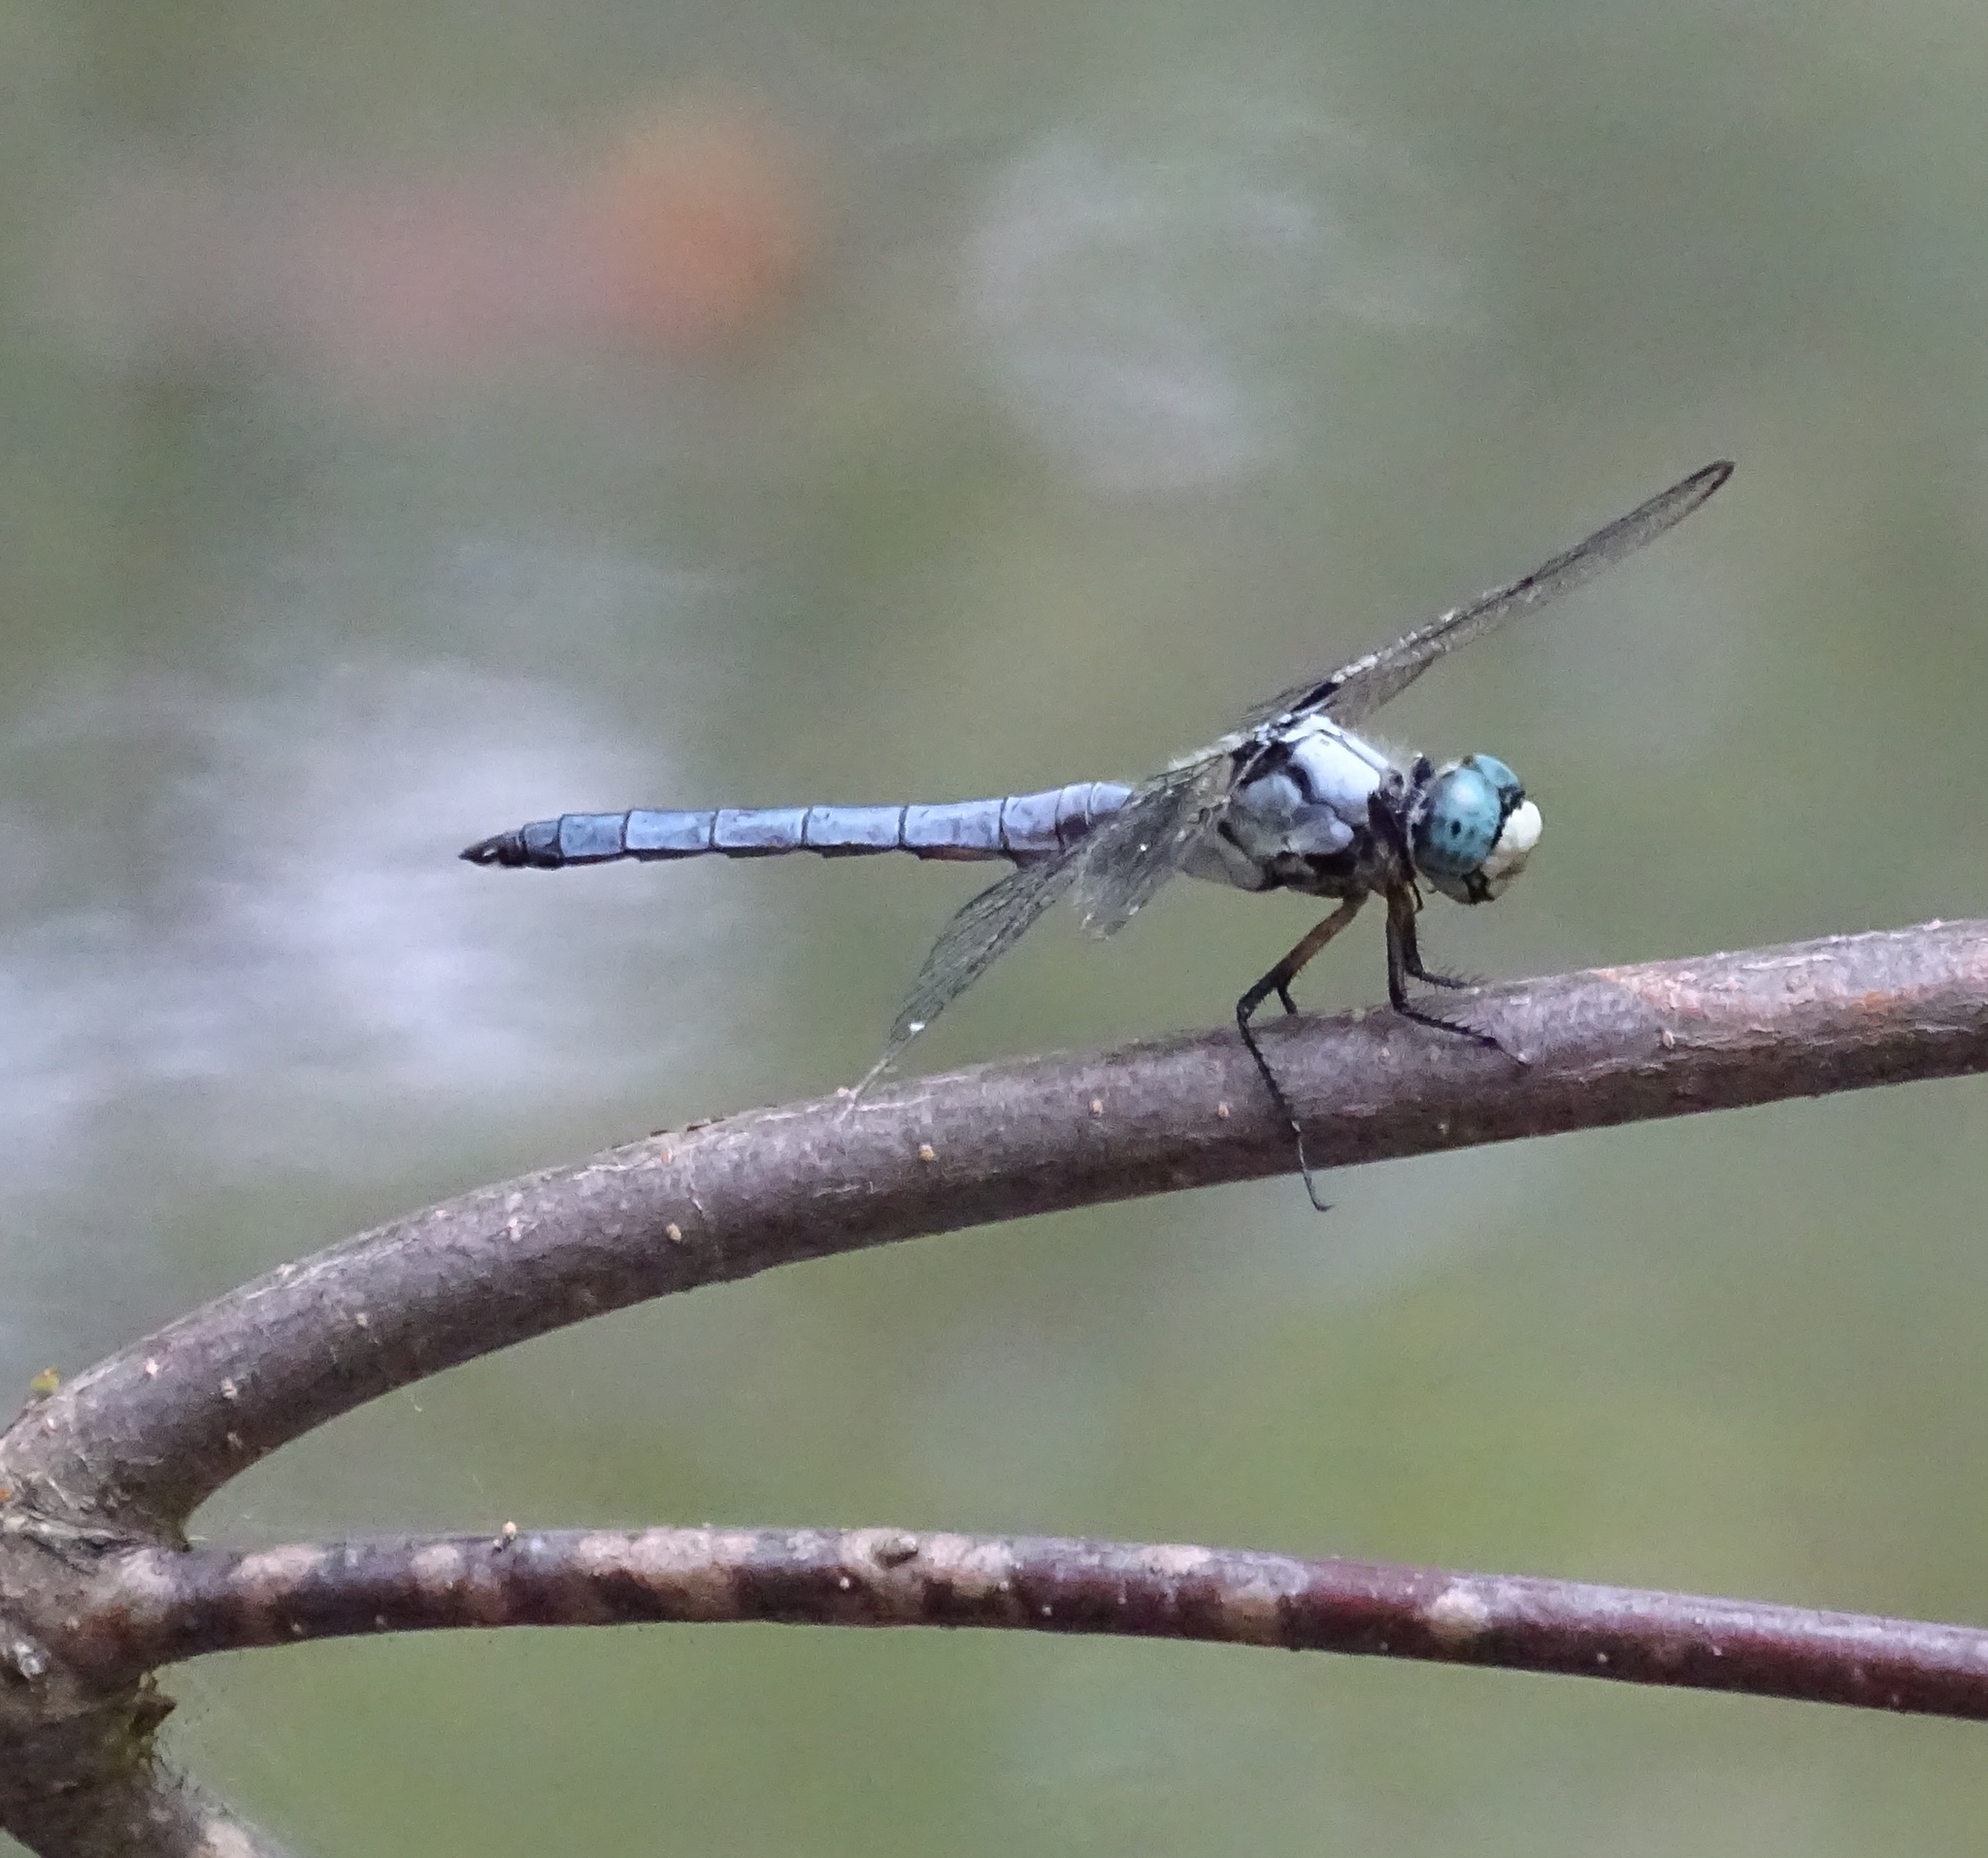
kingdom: Animalia
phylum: Arthropoda
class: Insecta
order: Odonata
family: Libellulidae
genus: Libellula
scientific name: Libellula vibrans
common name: Great blue skimmer
